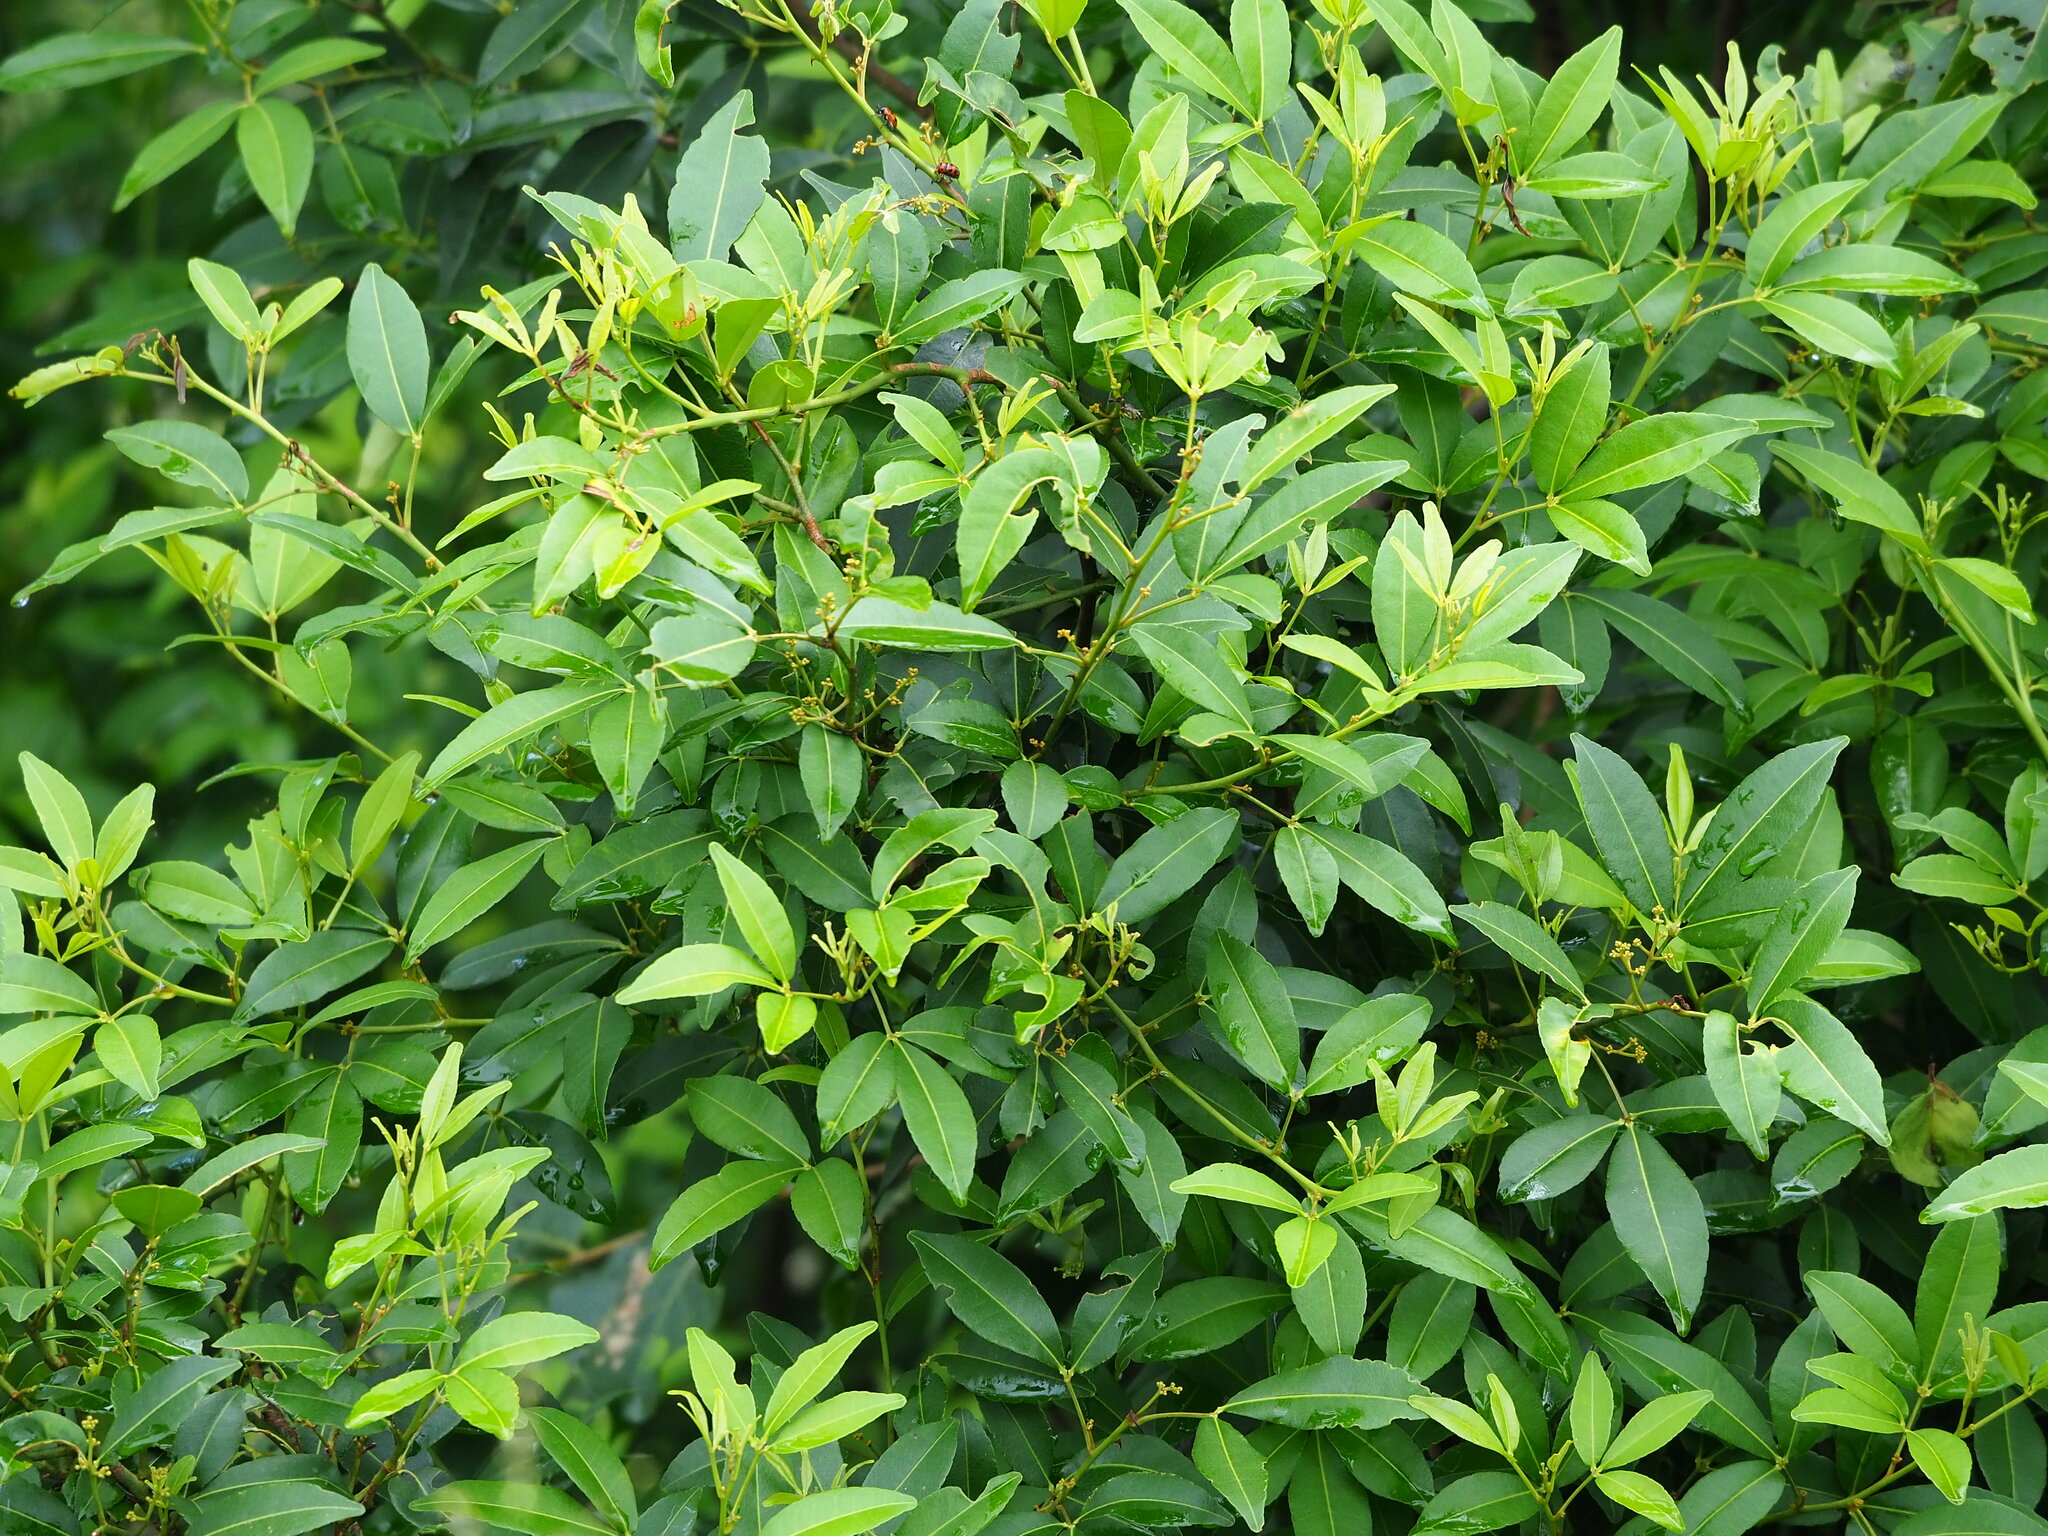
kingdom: Plantae
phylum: Tracheophyta
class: Magnoliopsida
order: Sapindales
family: Rutaceae
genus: Zanthoxylum
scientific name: Zanthoxylum asiaticum
